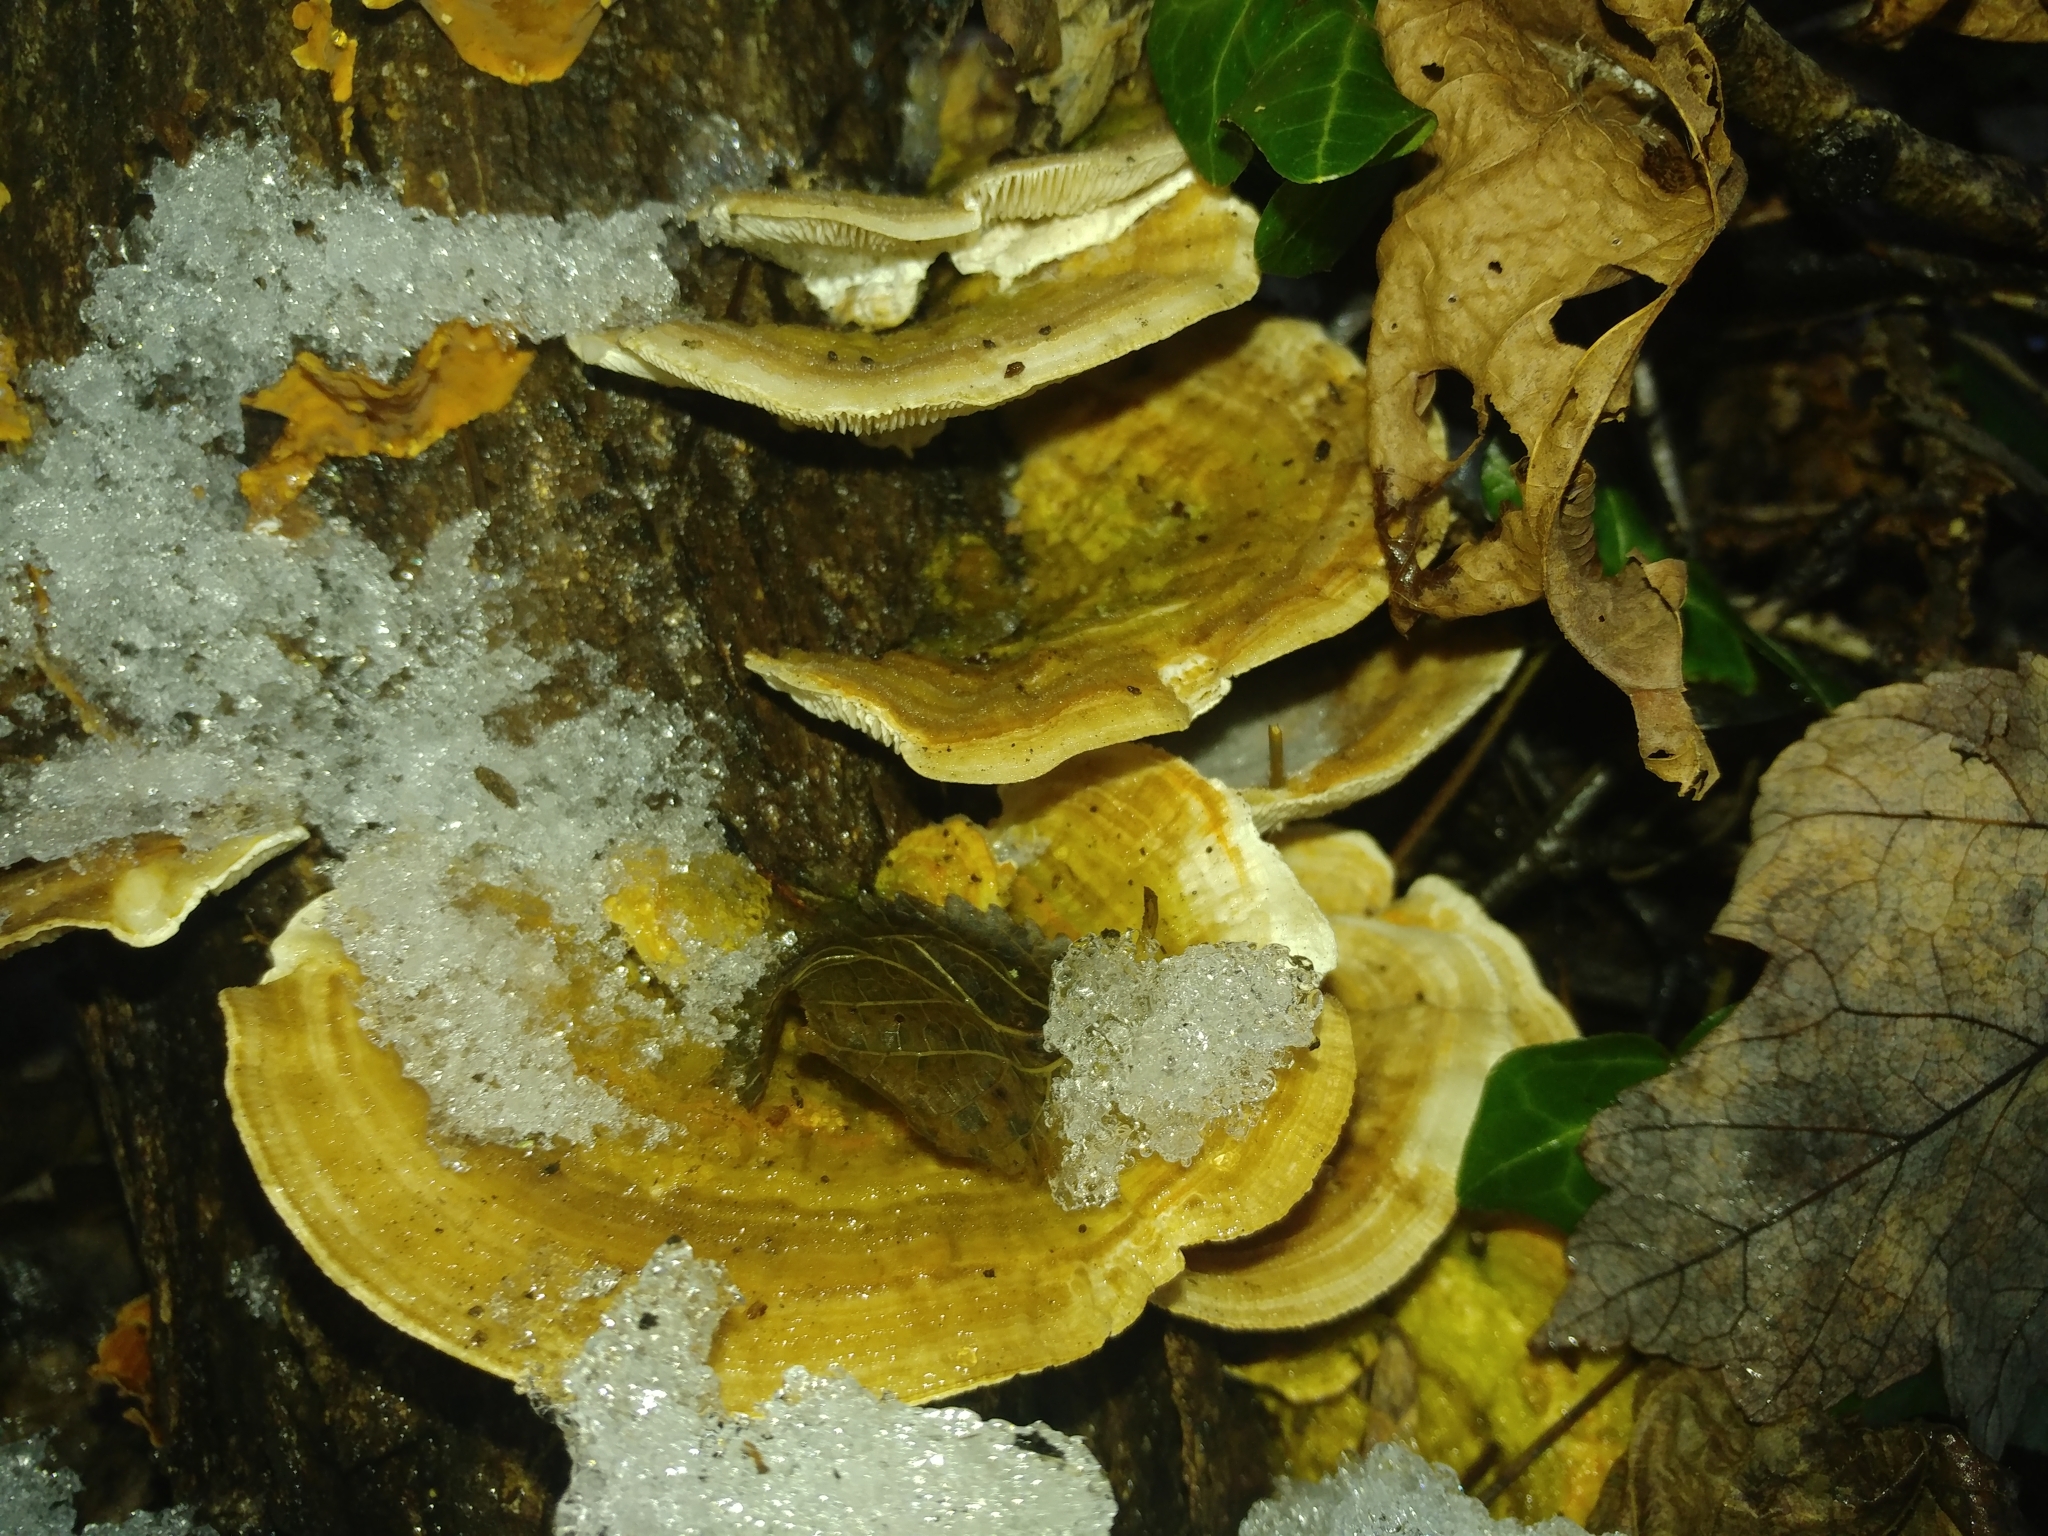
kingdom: Fungi
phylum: Basidiomycota
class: Agaricomycetes
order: Polyporales
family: Polyporaceae
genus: Lenzites
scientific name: Lenzites betulinus
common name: Birch mazegill
